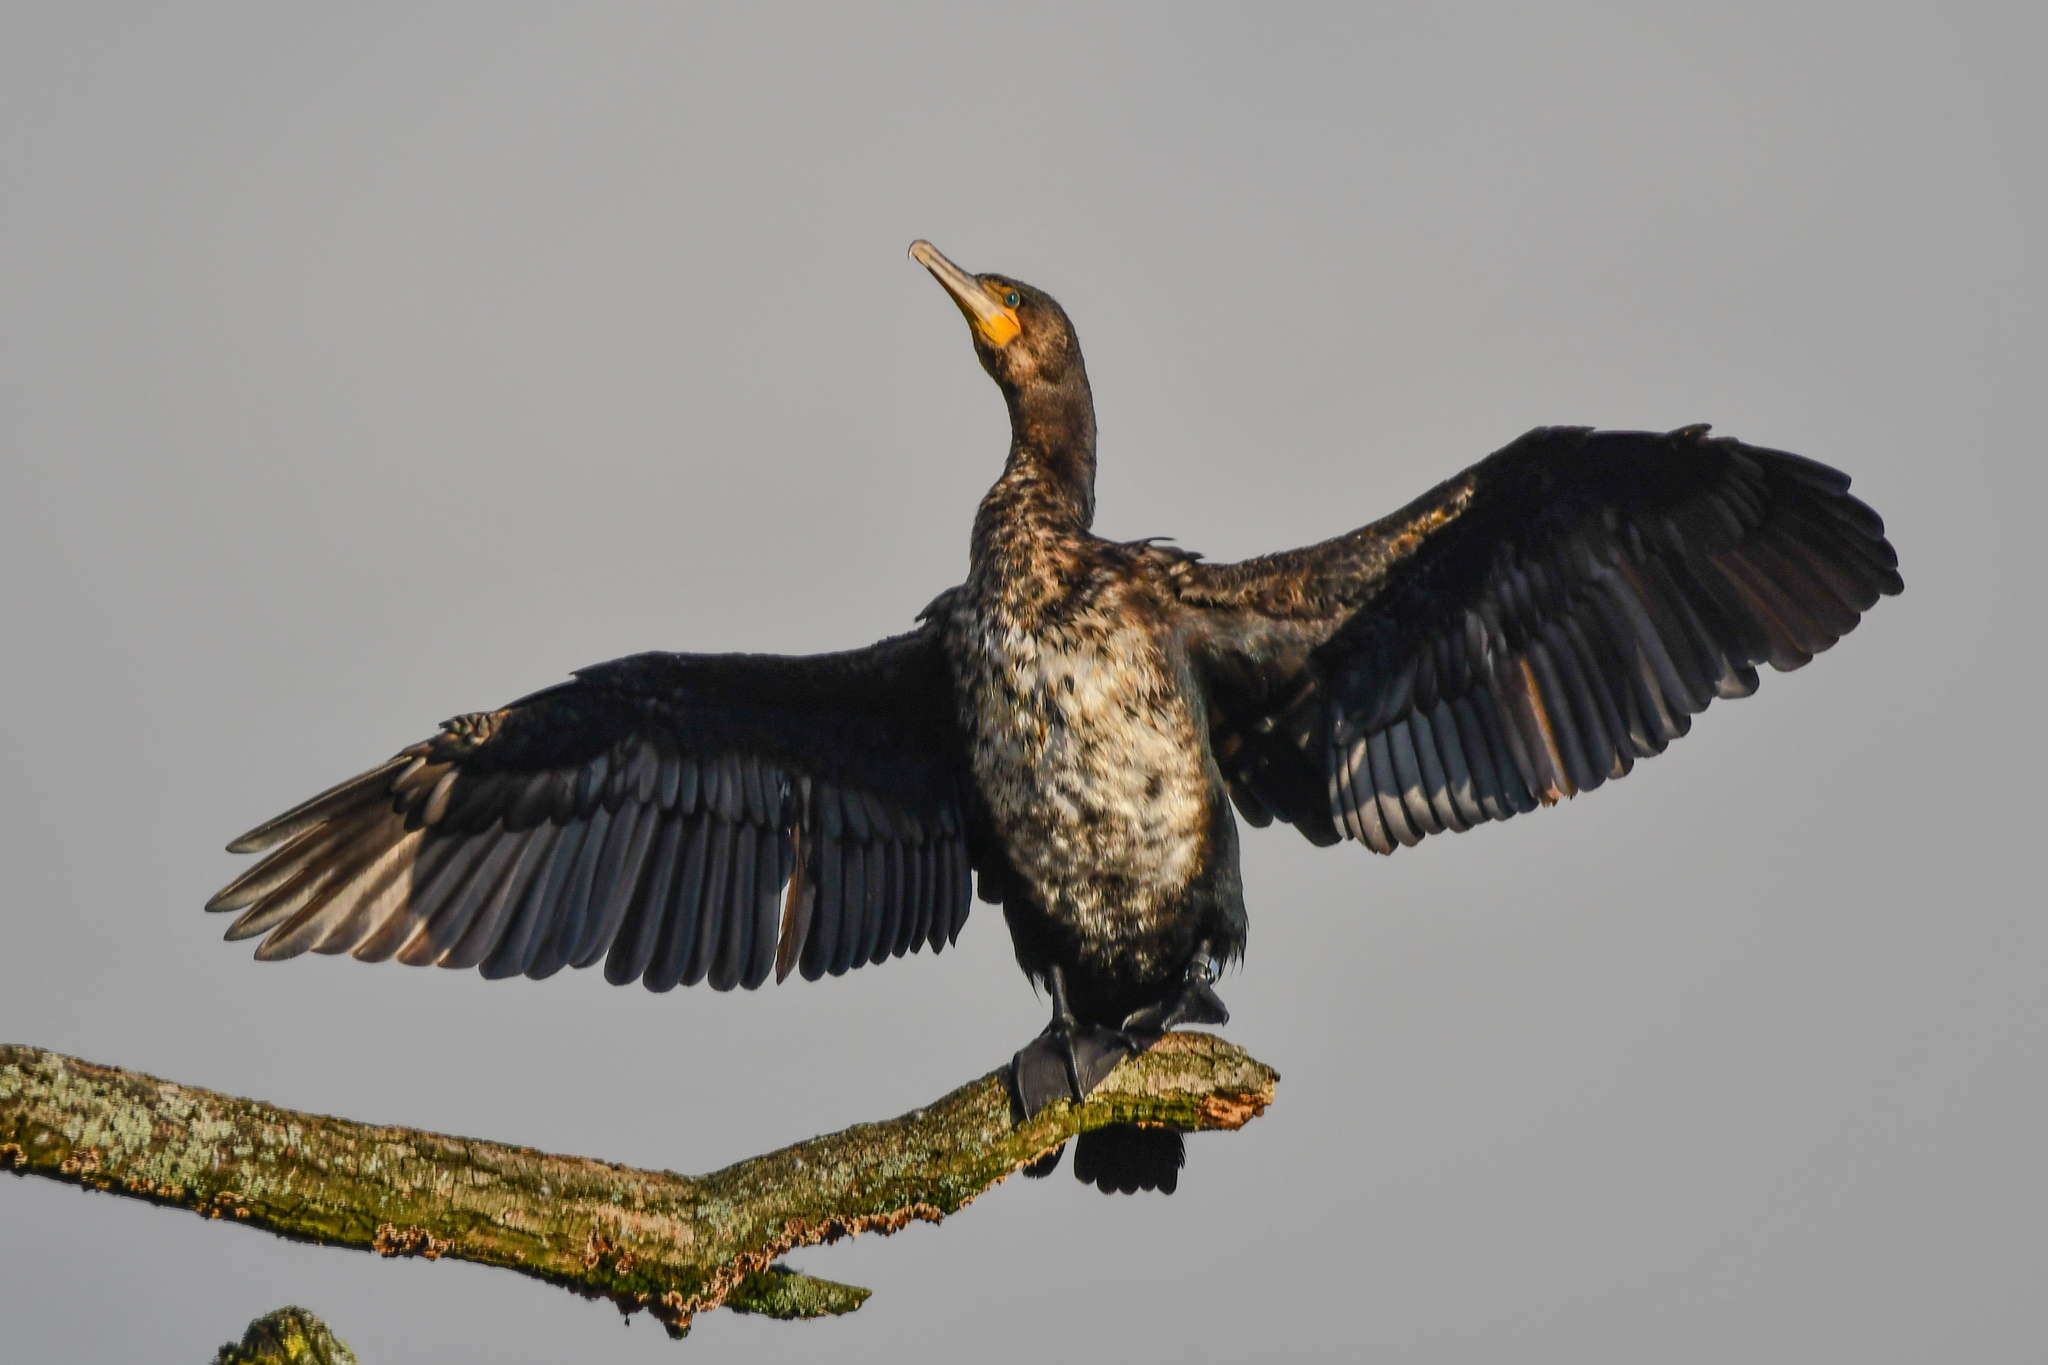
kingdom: Animalia
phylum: Chordata
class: Aves
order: Suliformes
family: Phalacrocoracidae
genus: Phalacrocorax
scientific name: Phalacrocorax carbo
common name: Great cormorant
